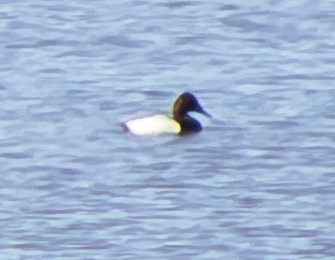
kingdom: Animalia
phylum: Chordata
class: Aves
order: Anseriformes
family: Anatidae
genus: Aythya
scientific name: Aythya valisineria
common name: Canvasback
